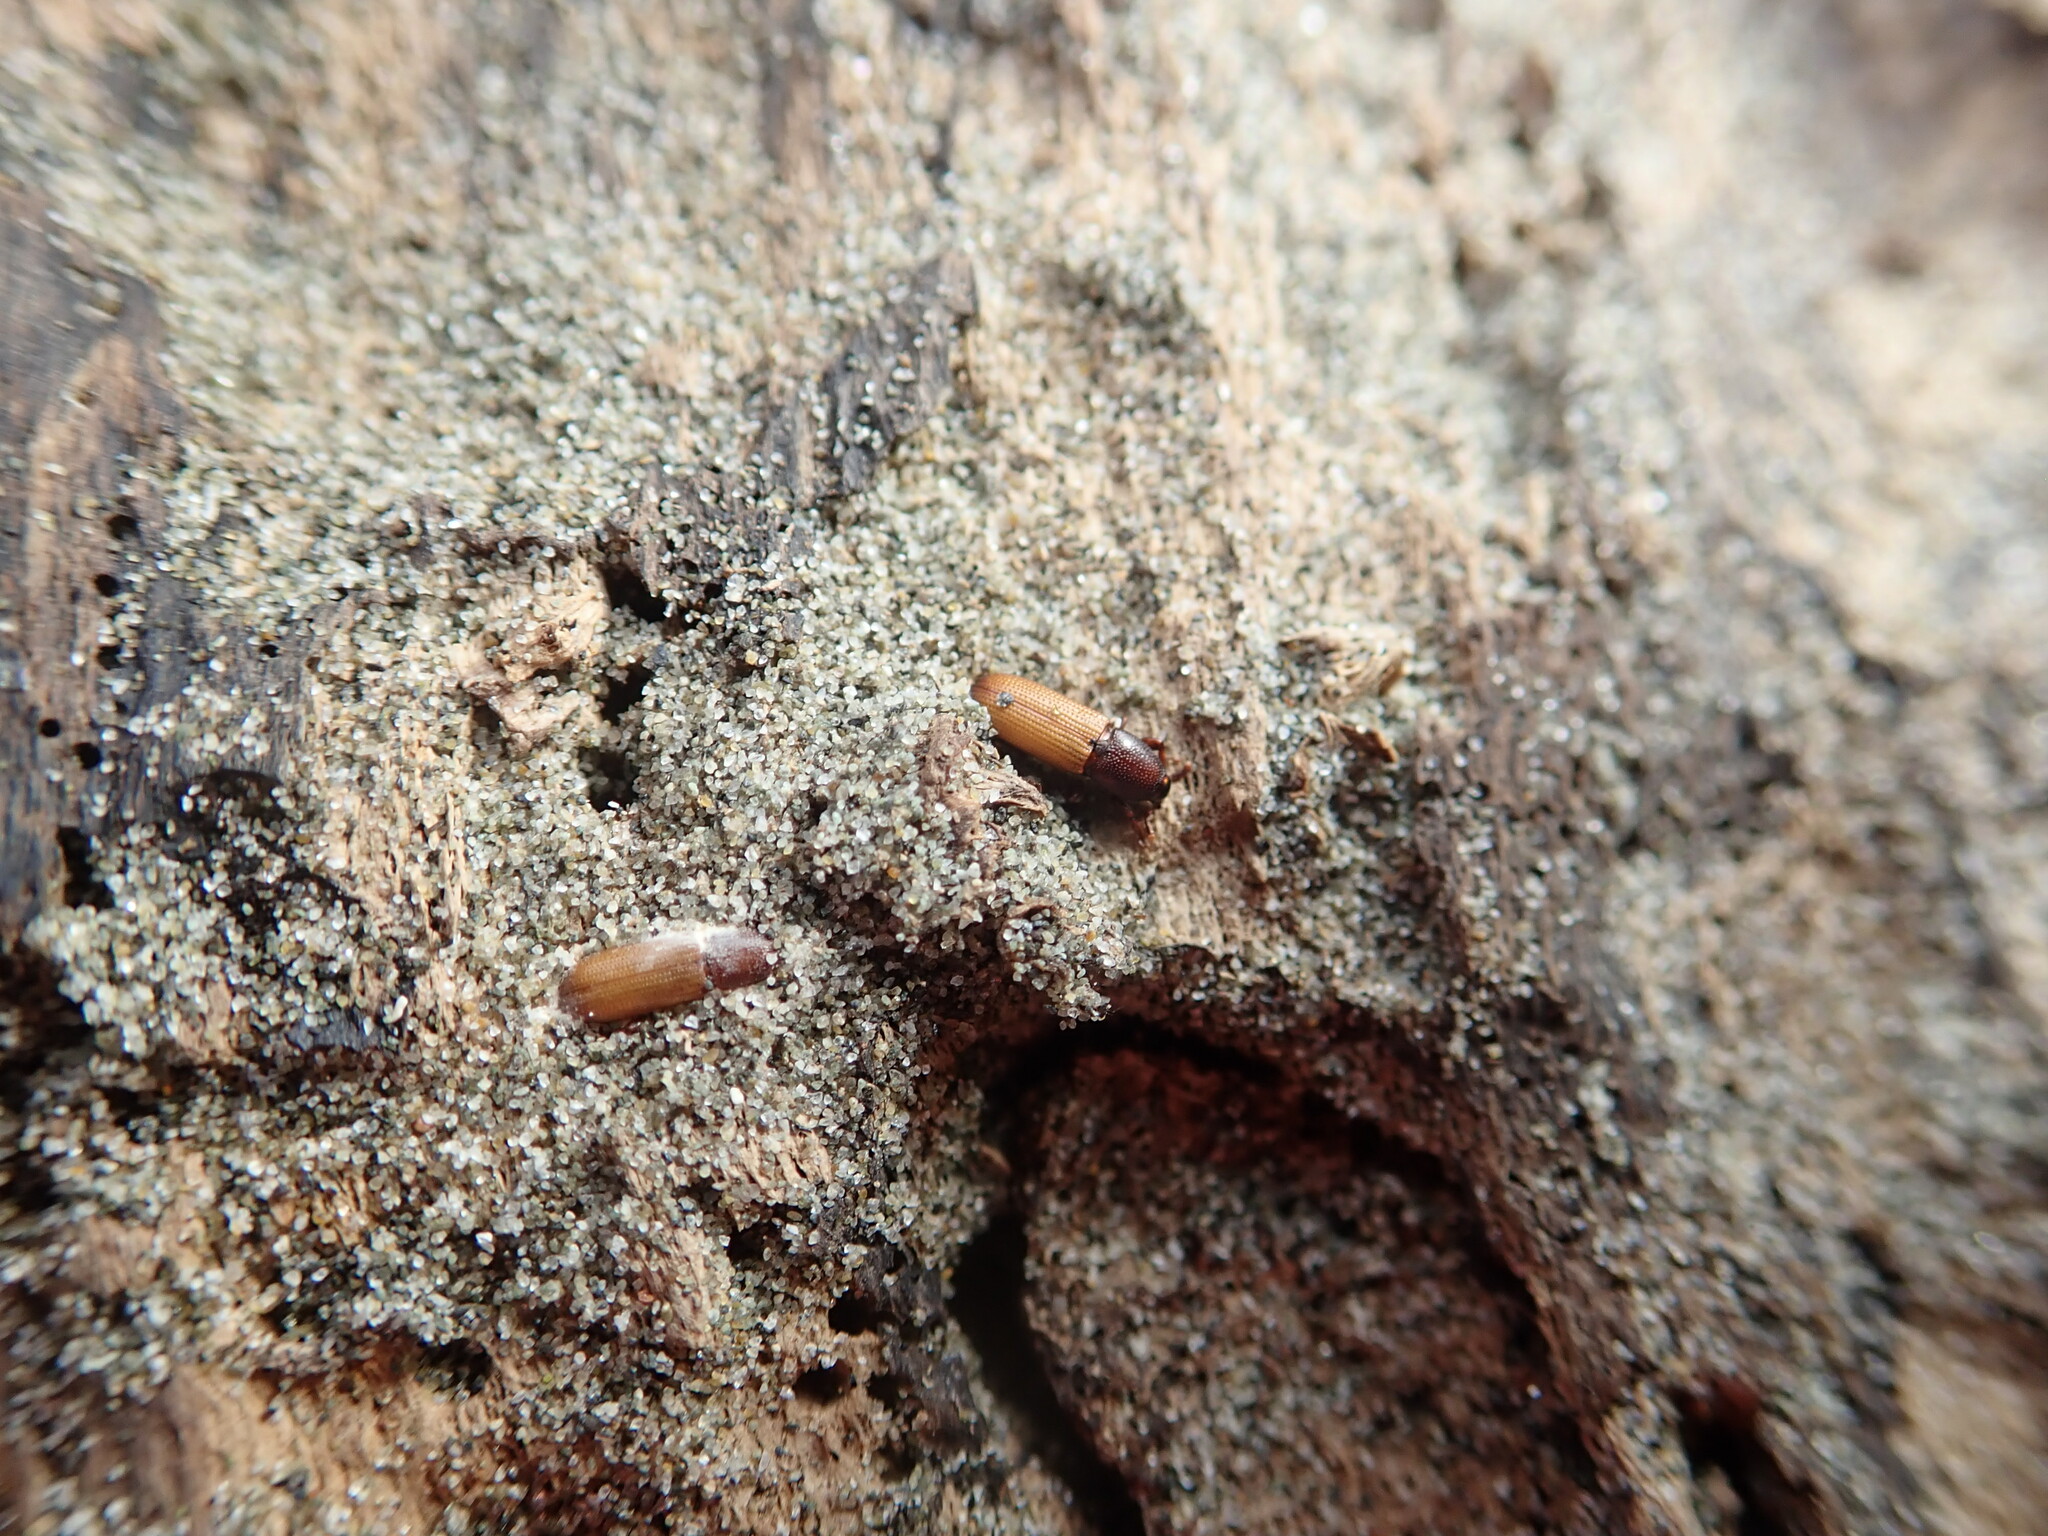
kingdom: Animalia
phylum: Arthropoda
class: Insecta
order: Coleoptera
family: Curculionidae
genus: Mesites
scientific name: Mesites pallidipennis
